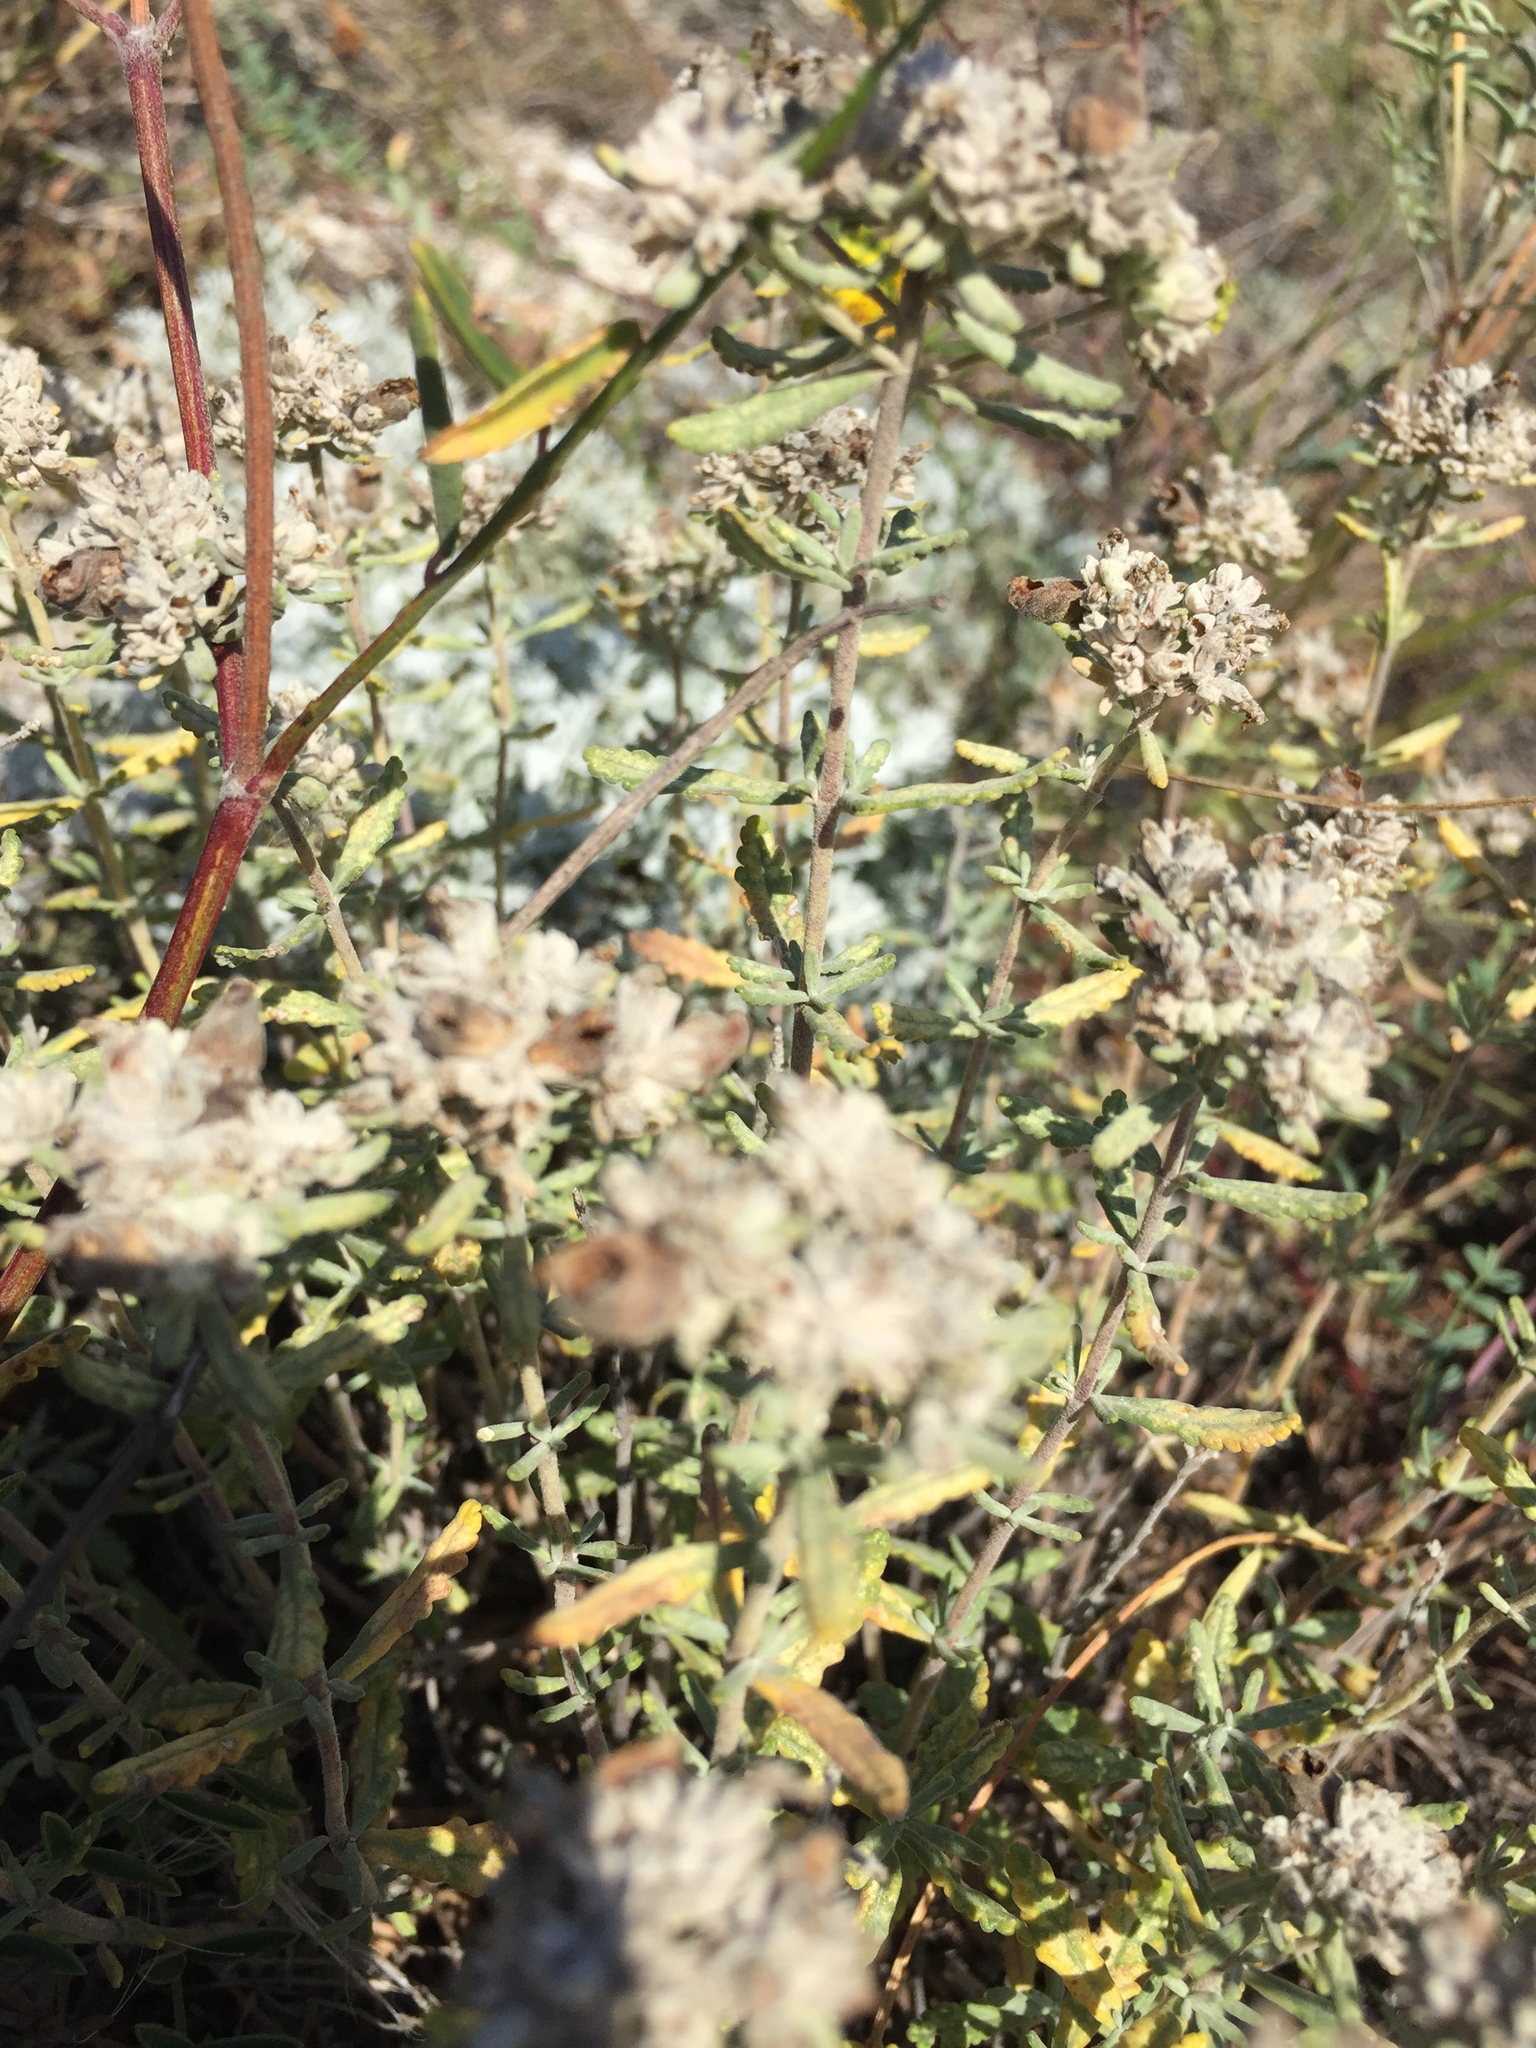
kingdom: Plantae
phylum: Tracheophyta
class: Magnoliopsida
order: Lamiales
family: Lamiaceae
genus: Teucrium
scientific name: Teucrium polium
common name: Poley
